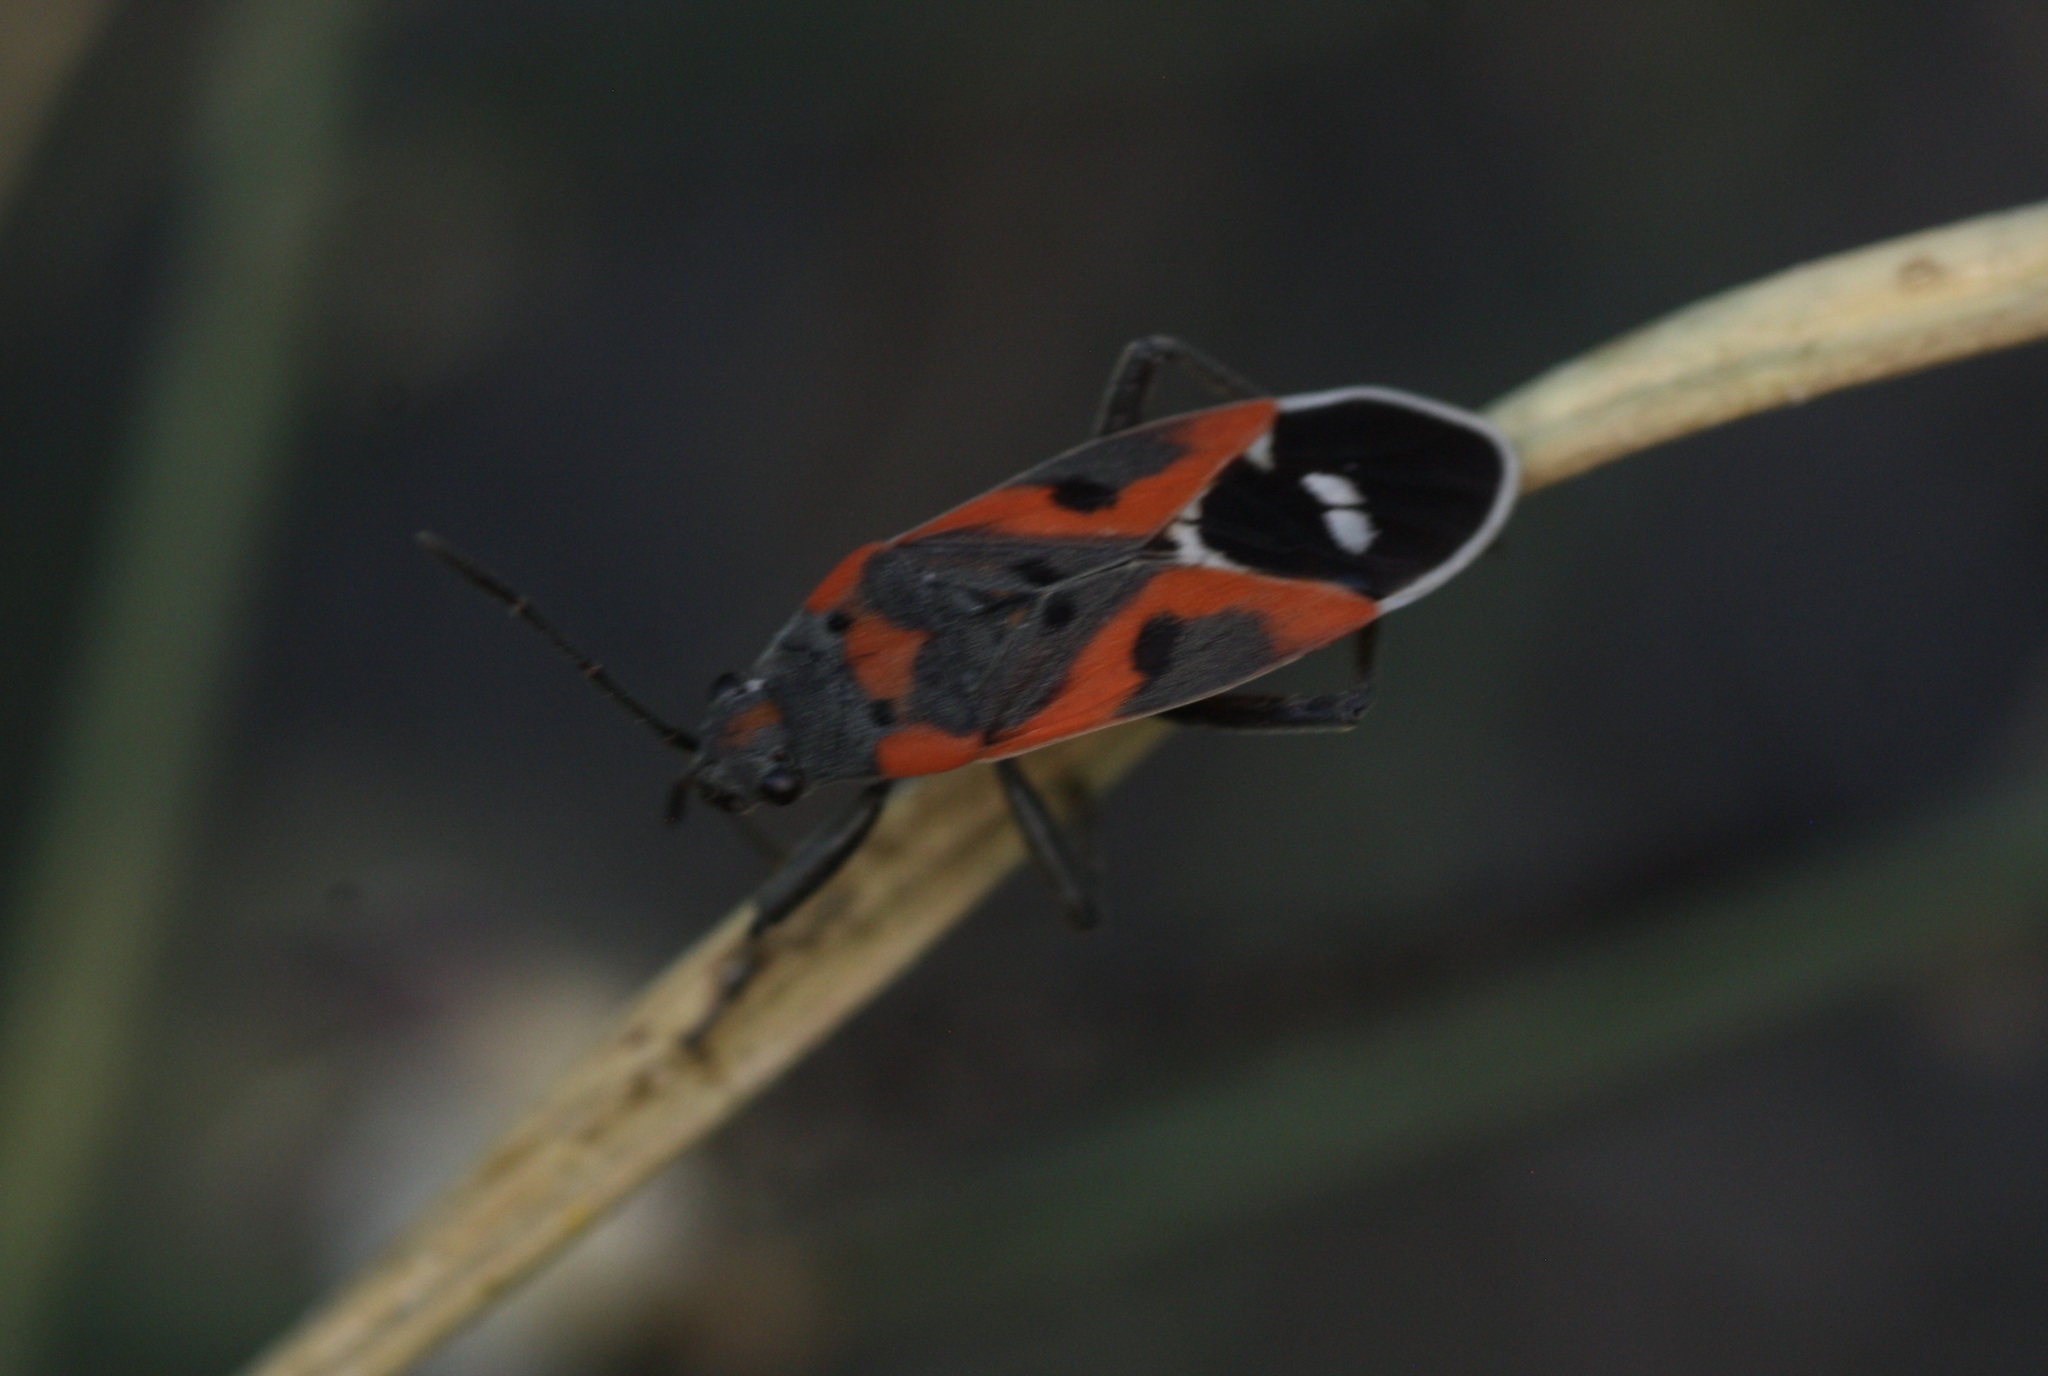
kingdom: Animalia
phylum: Arthropoda
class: Insecta
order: Hemiptera
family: Lygaeidae
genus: Lygaeus
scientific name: Lygaeus kalmii
